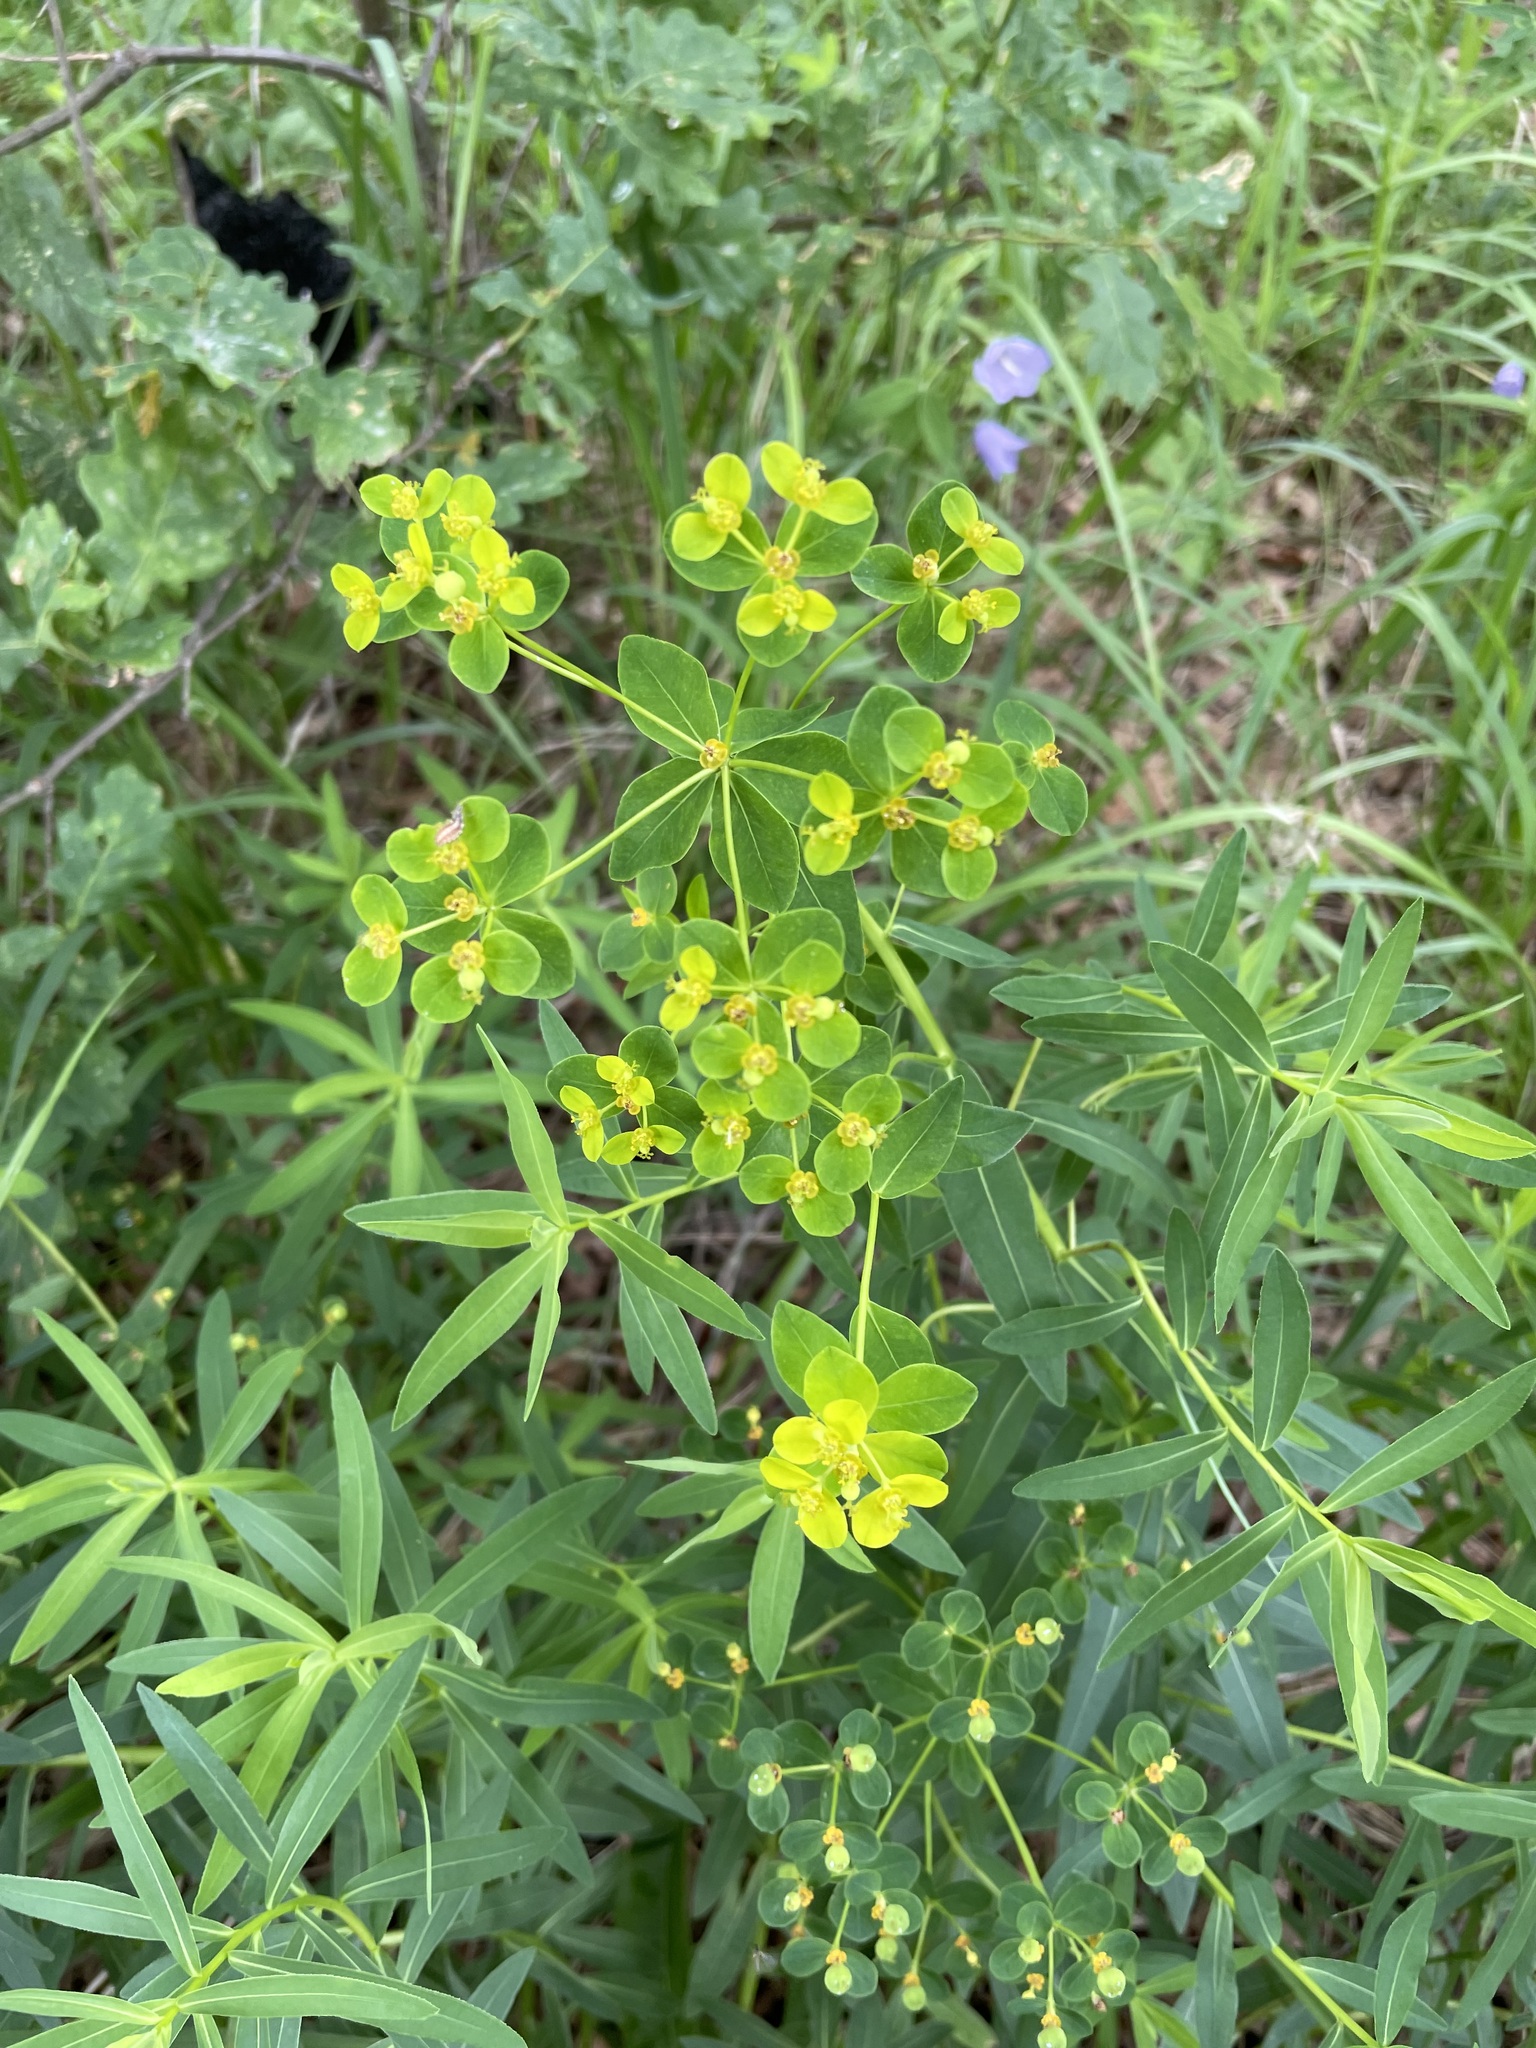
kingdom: Plantae
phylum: Tracheophyta
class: Magnoliopsida
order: Malpighiales
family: Euphorbiaceae
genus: Euphorbia
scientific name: Euphorbia semivillosa
